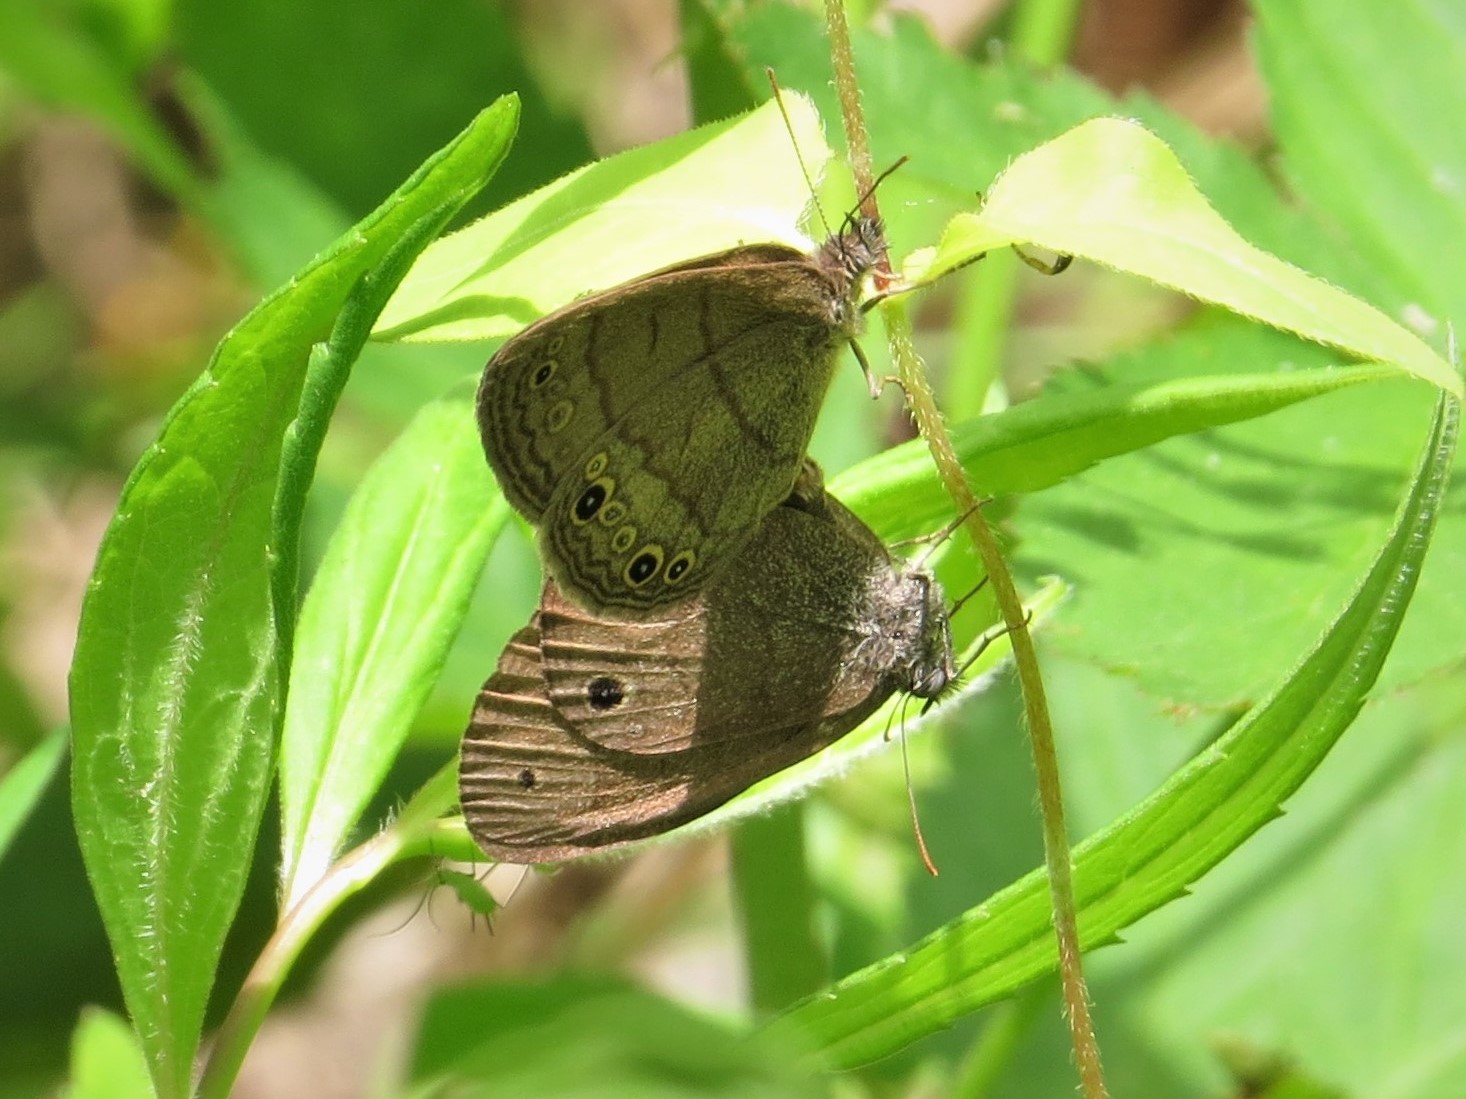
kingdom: Animalia
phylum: Arthropoda
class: Insecta
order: Lepidoptera
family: Nymphalidae
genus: Hermeuptychia
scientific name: Hermeuptychia hermes
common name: Hermes satyr
